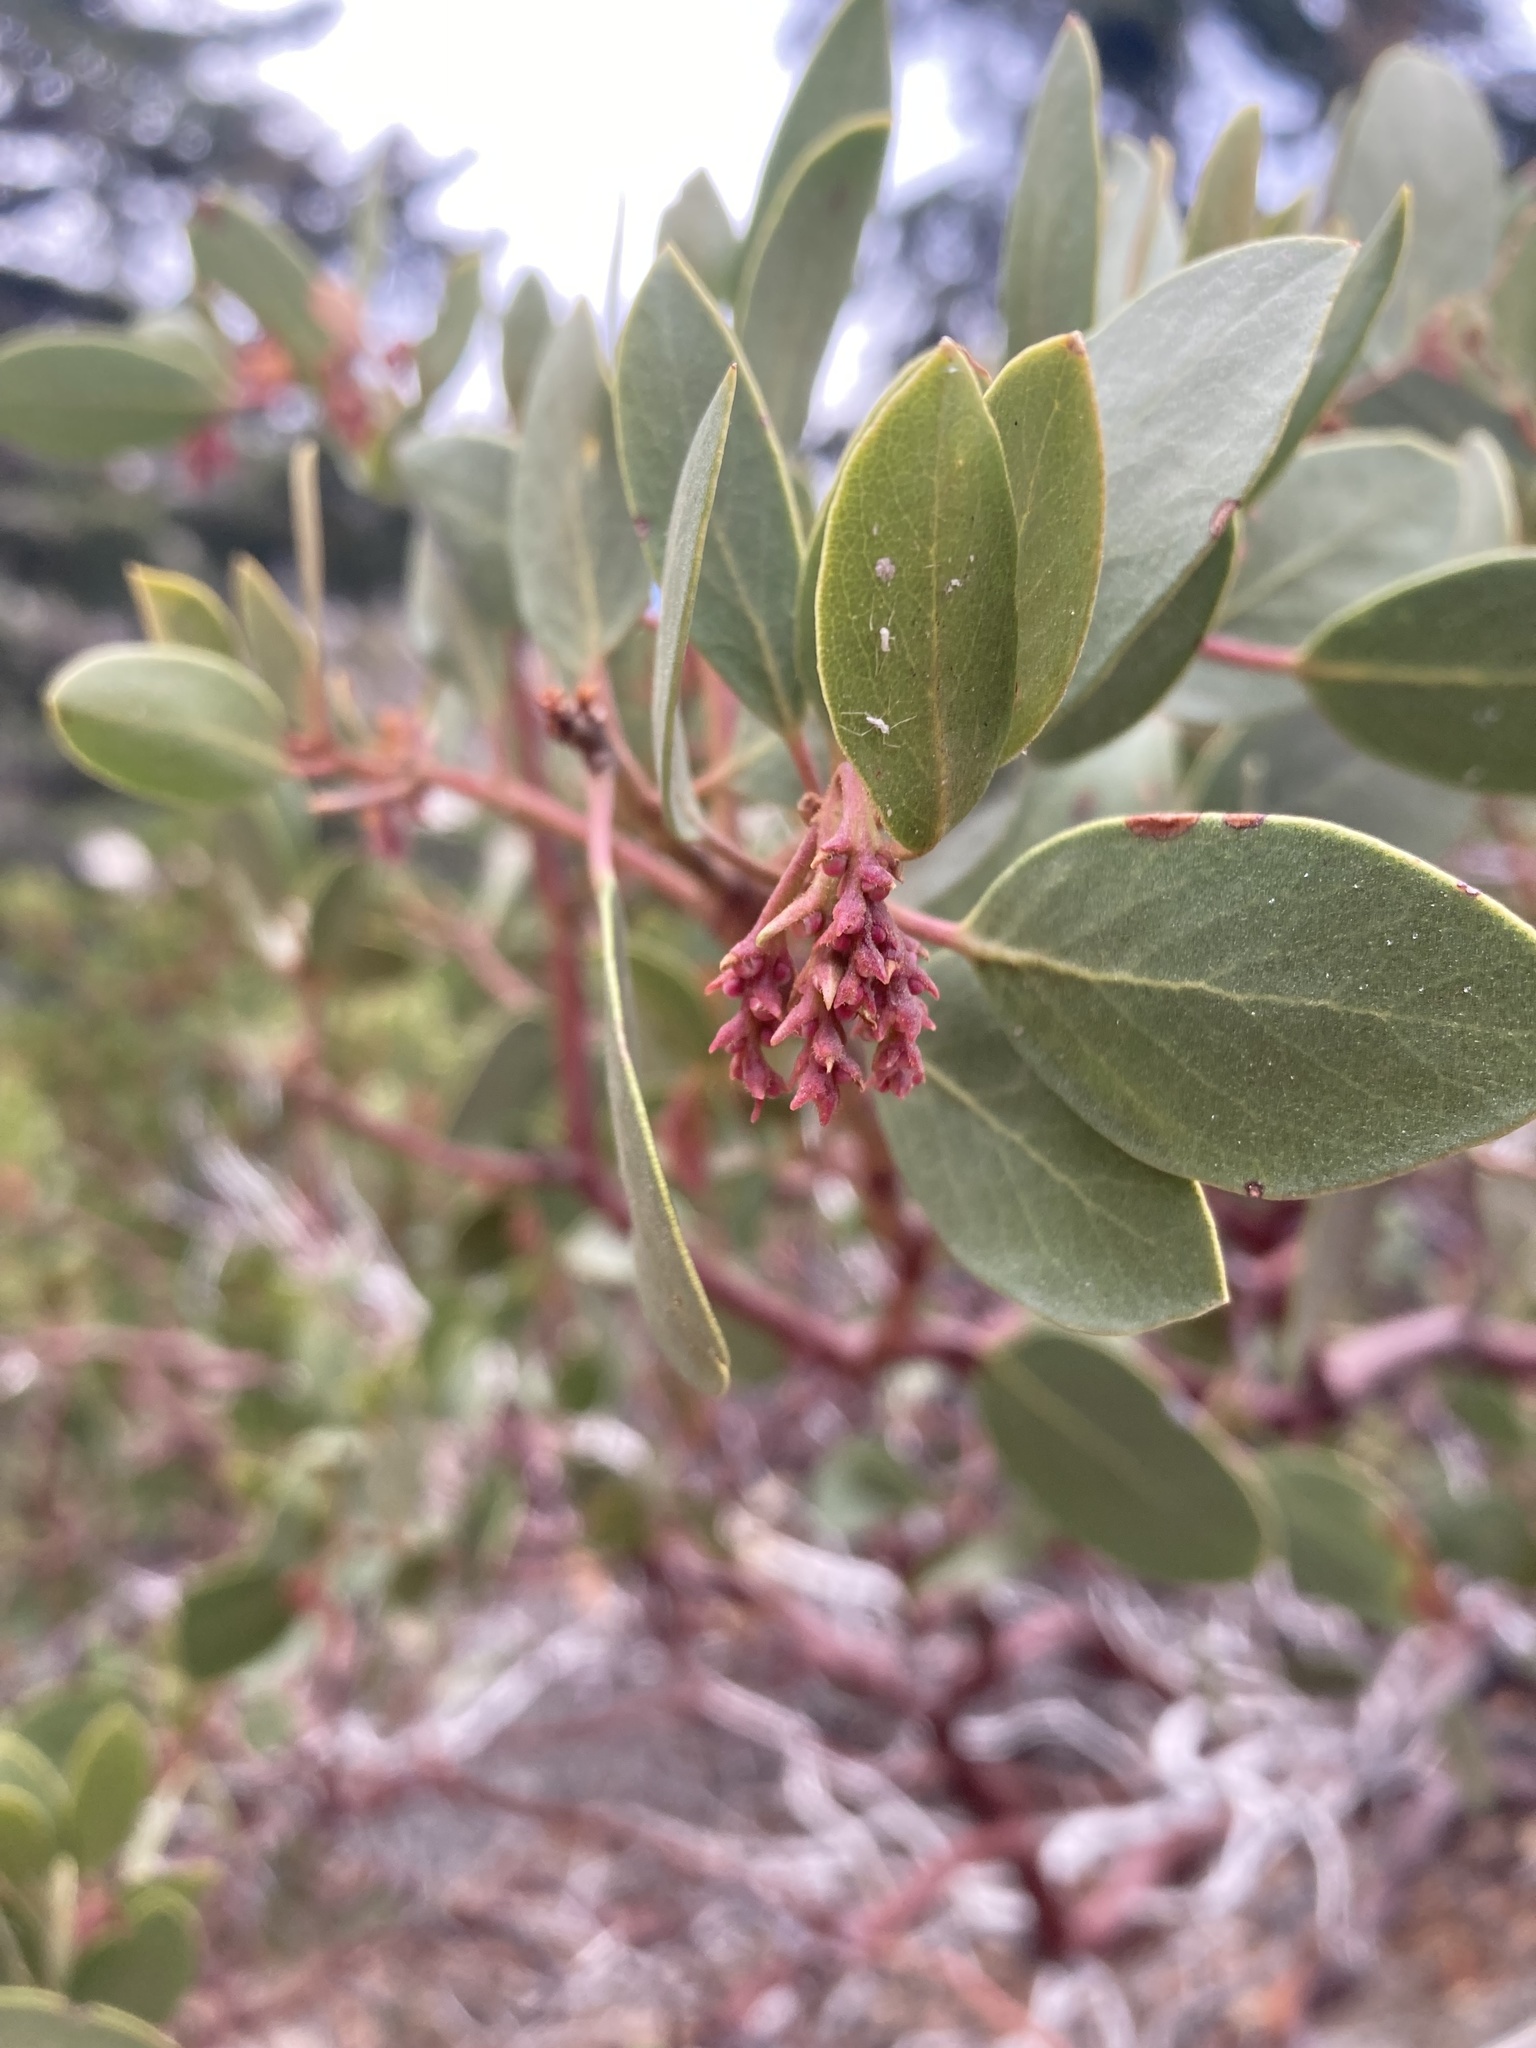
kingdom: Plantae
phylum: Tracheophyta
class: Magnoliopsida
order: Ericales
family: Ericaceae
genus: Arctostaphylos
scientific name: Arctostaphylos patula
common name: Green-leaf manzanita
